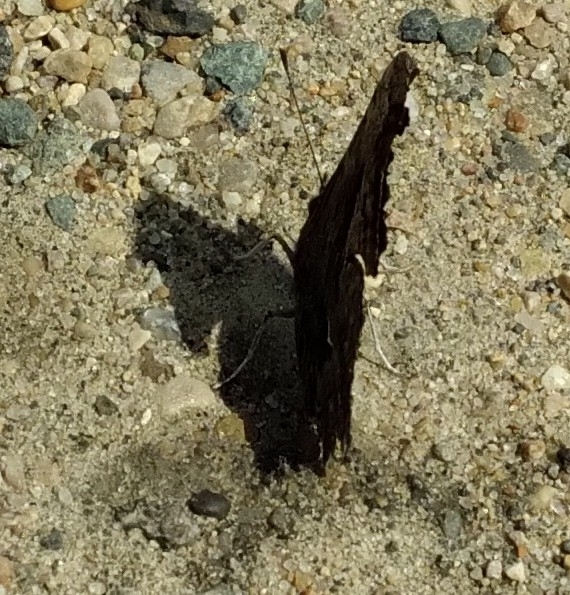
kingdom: Animalia
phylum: Arthropoda
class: Insecta
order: Lepidoptera
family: Nymphalidae
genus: Polygonia
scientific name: Polygonia progne
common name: Gray comma
